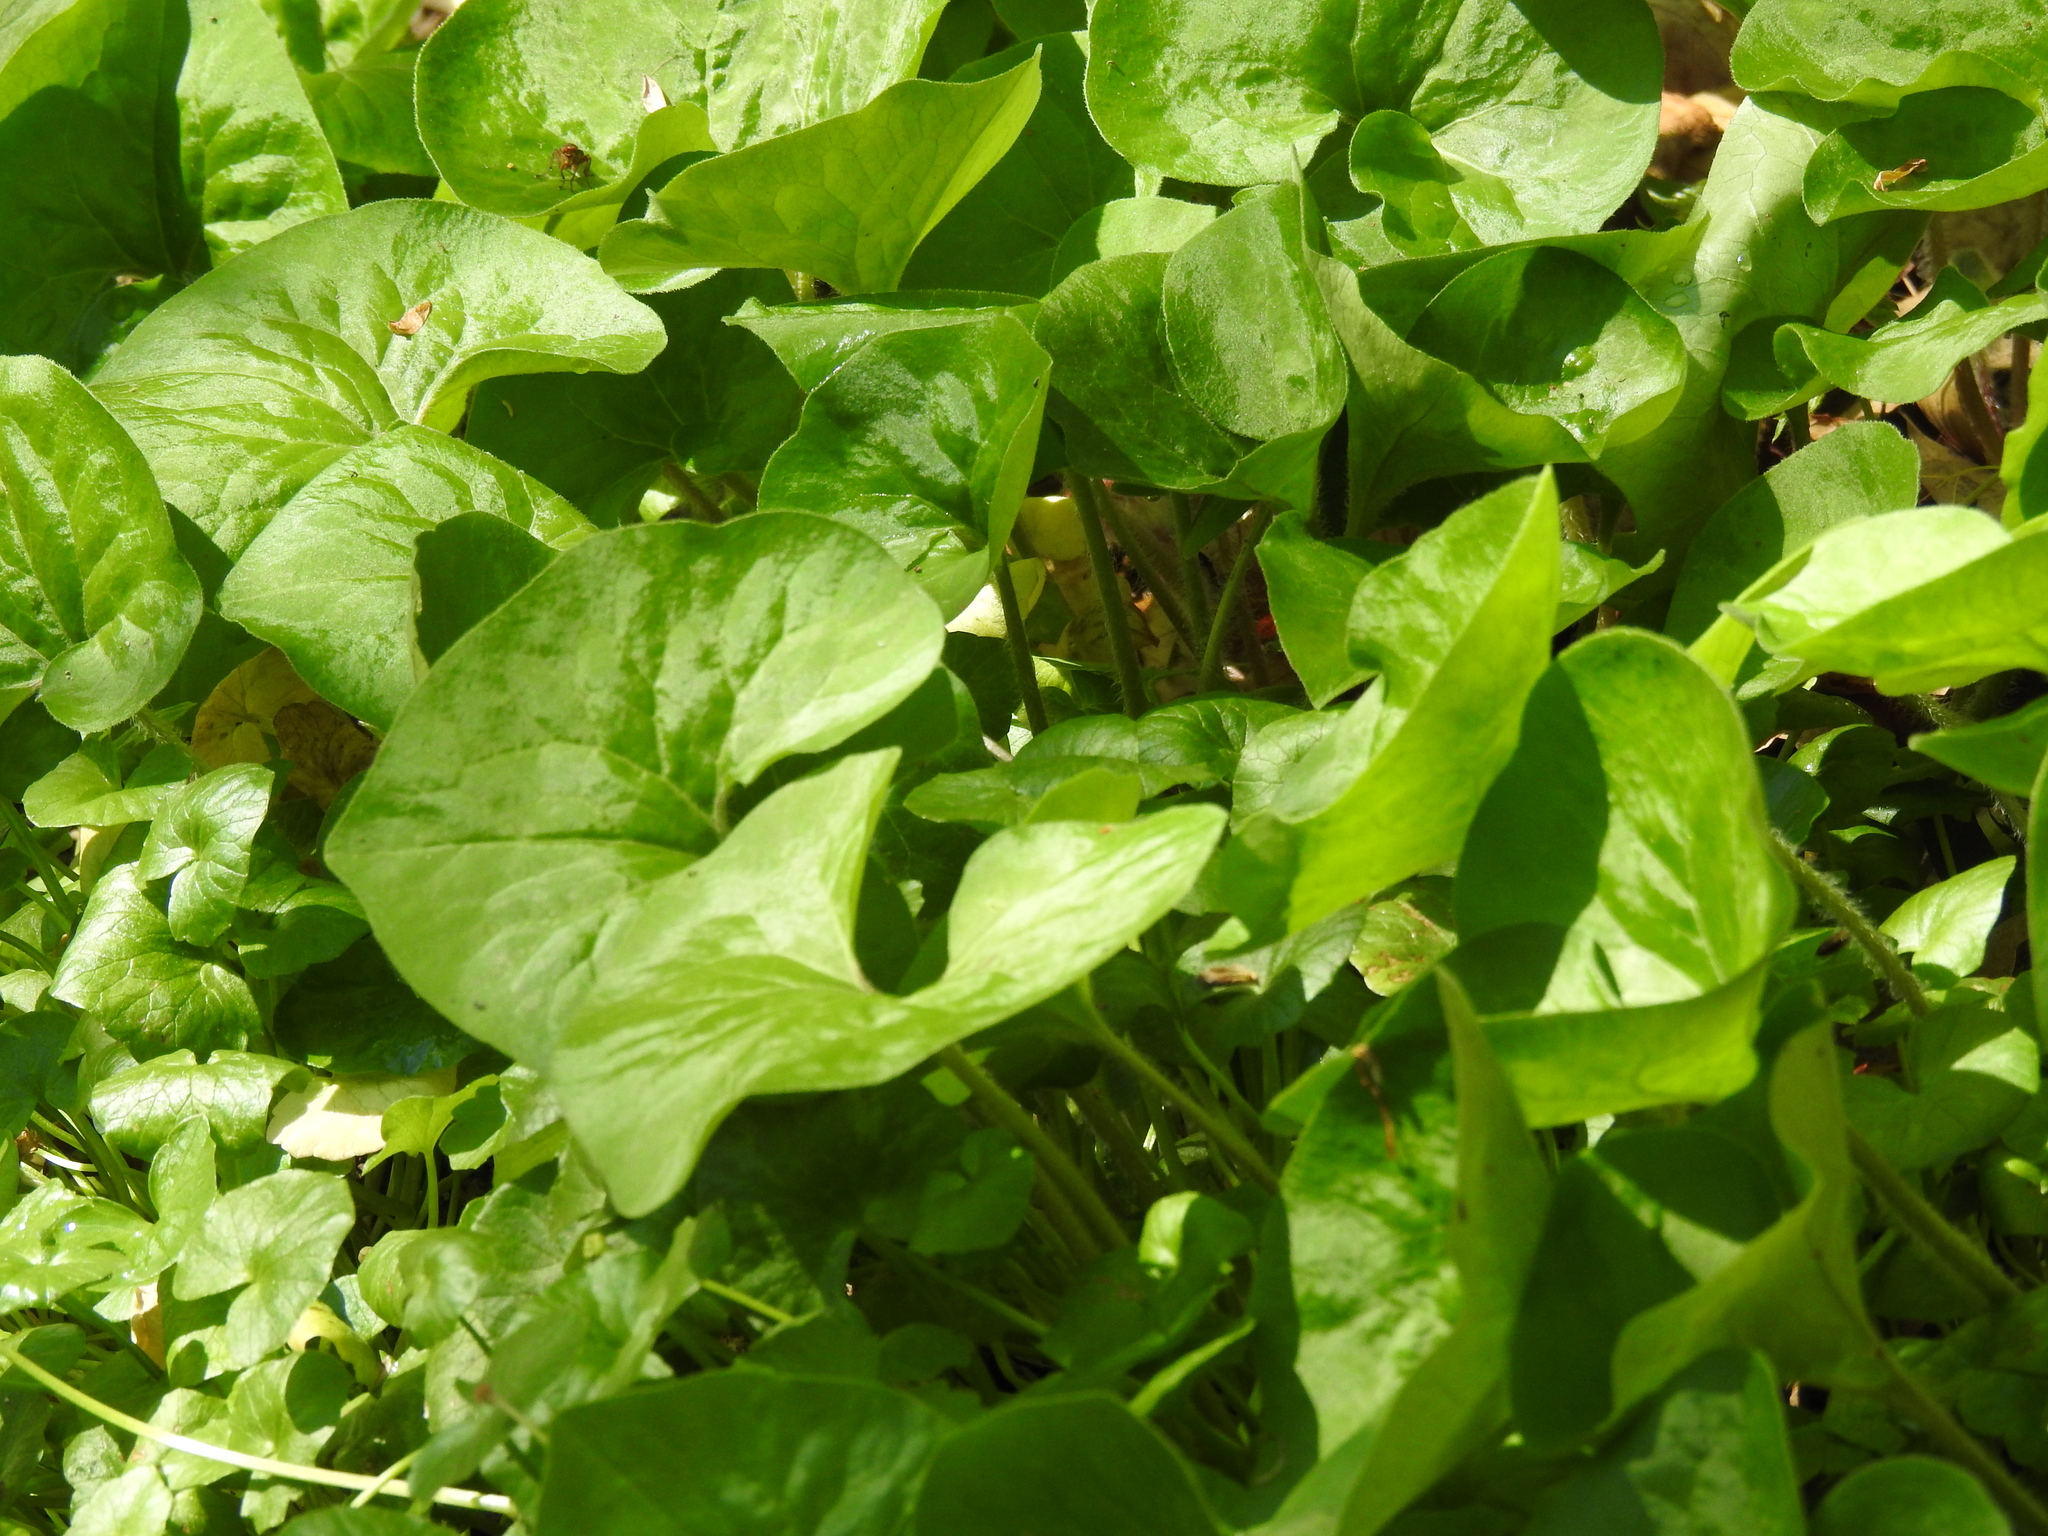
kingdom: Plantae
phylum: Tracheophyta
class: Magnoliopsida
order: Piperales
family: Aristolochiaceae
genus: Asarum
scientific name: Asarum canadense
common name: Wild ginger
